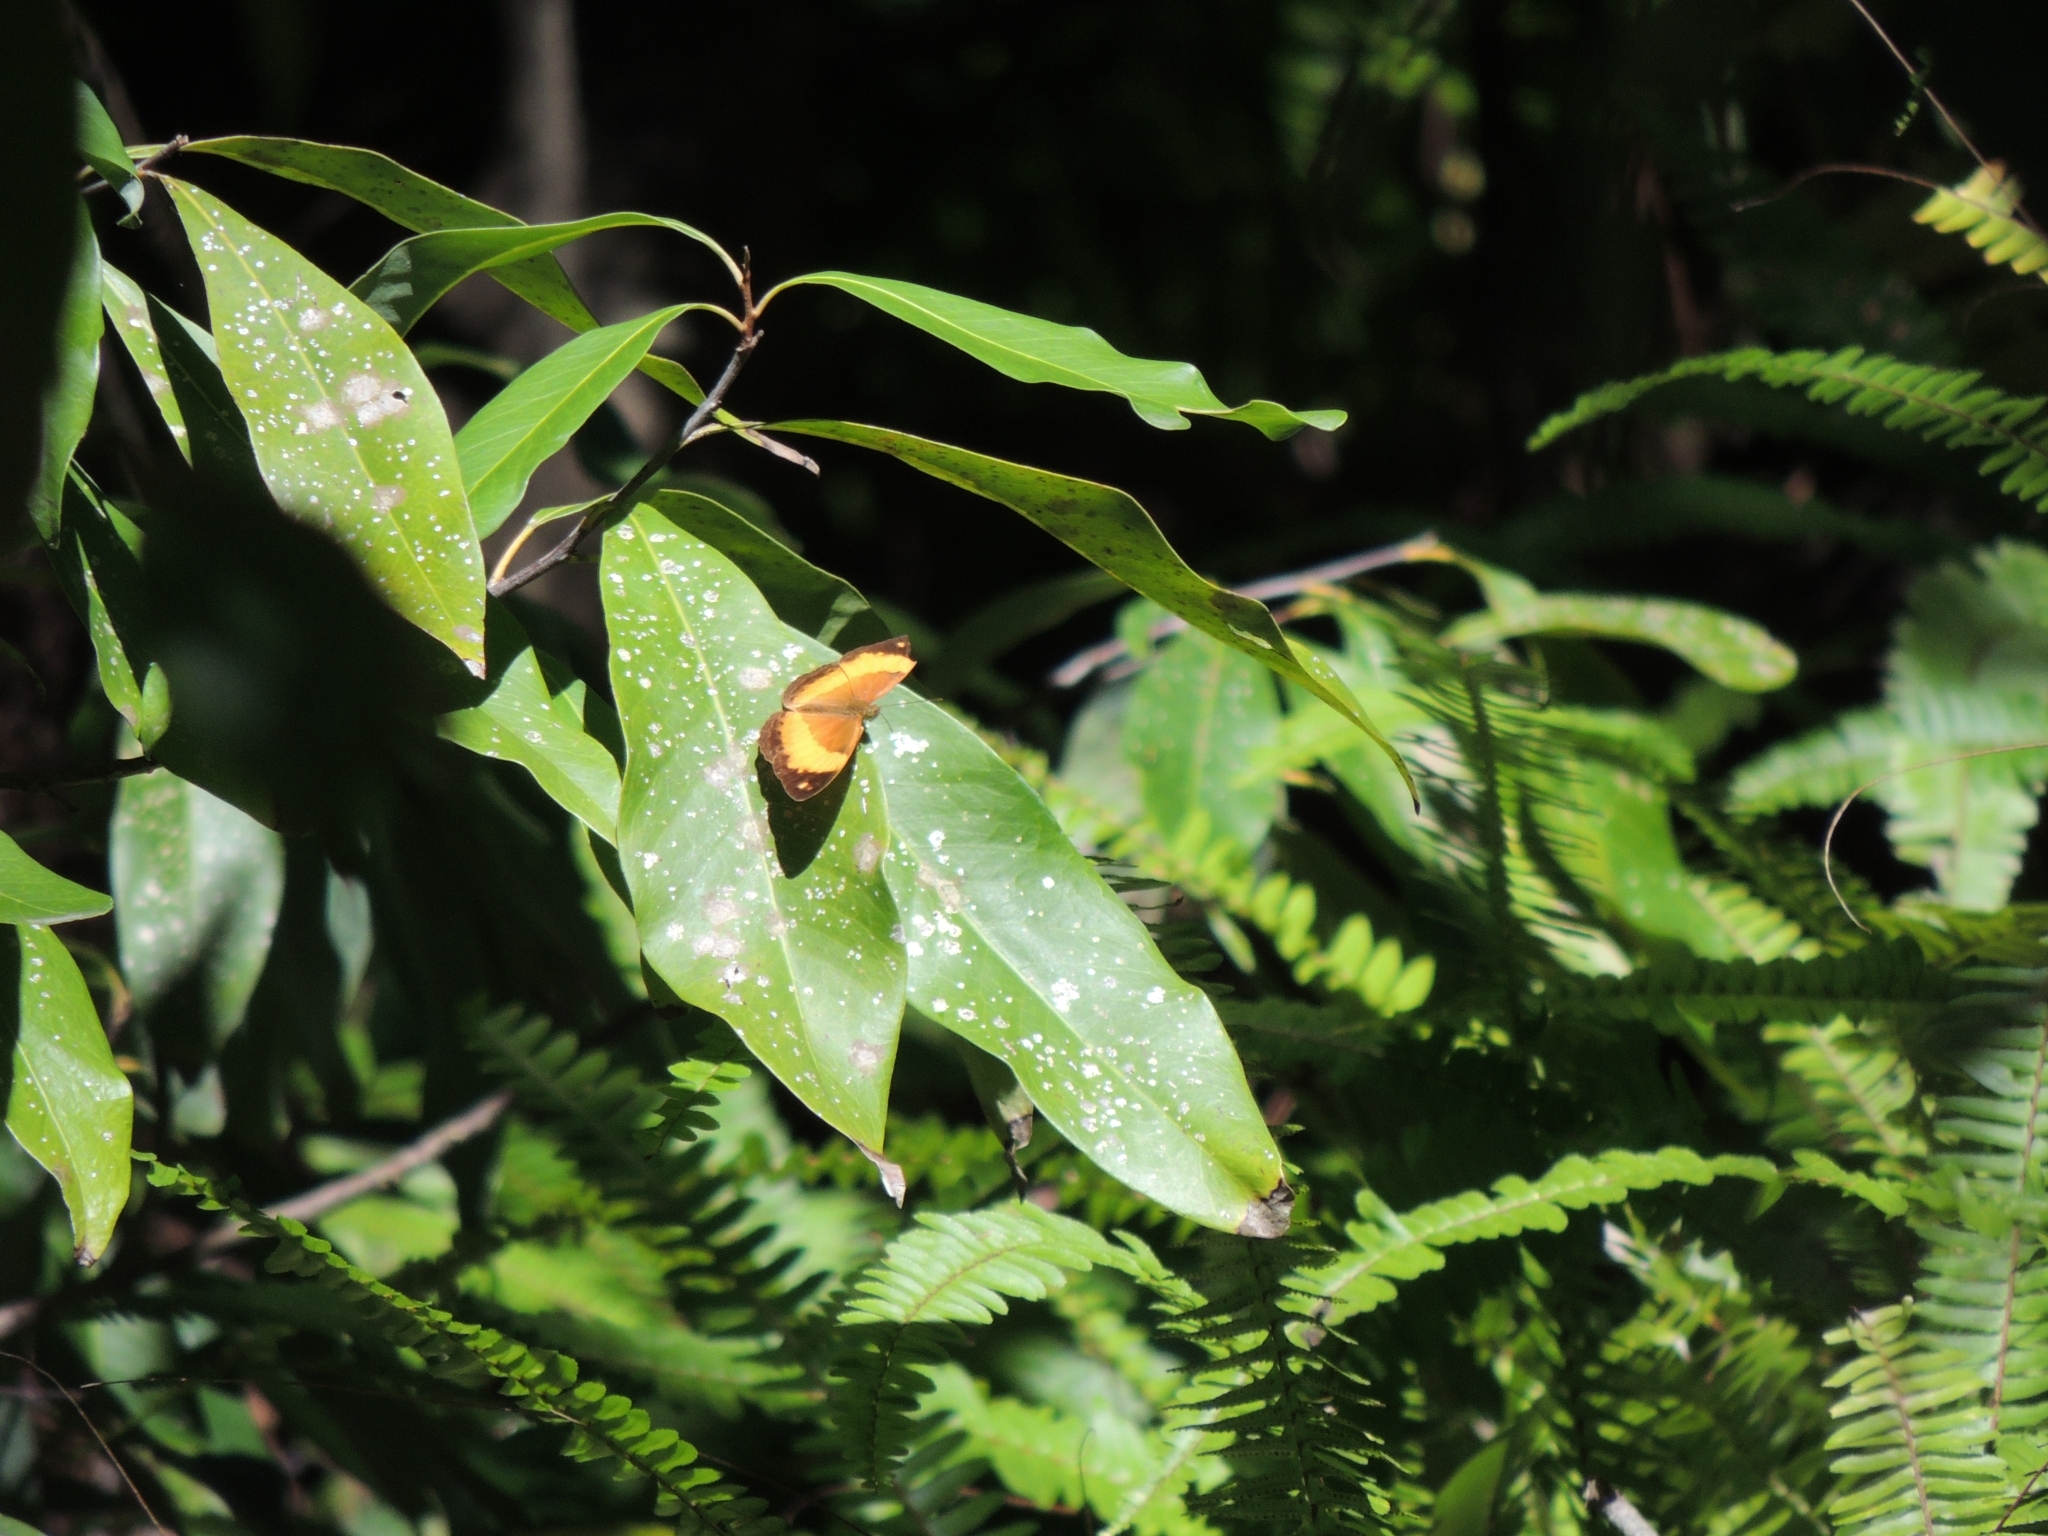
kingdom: Animalia
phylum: Arthropoda
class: Insecta
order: Lepidoptera
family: Nymphalidae
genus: Cupha
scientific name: Cupha prosope
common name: Bordered rustic
